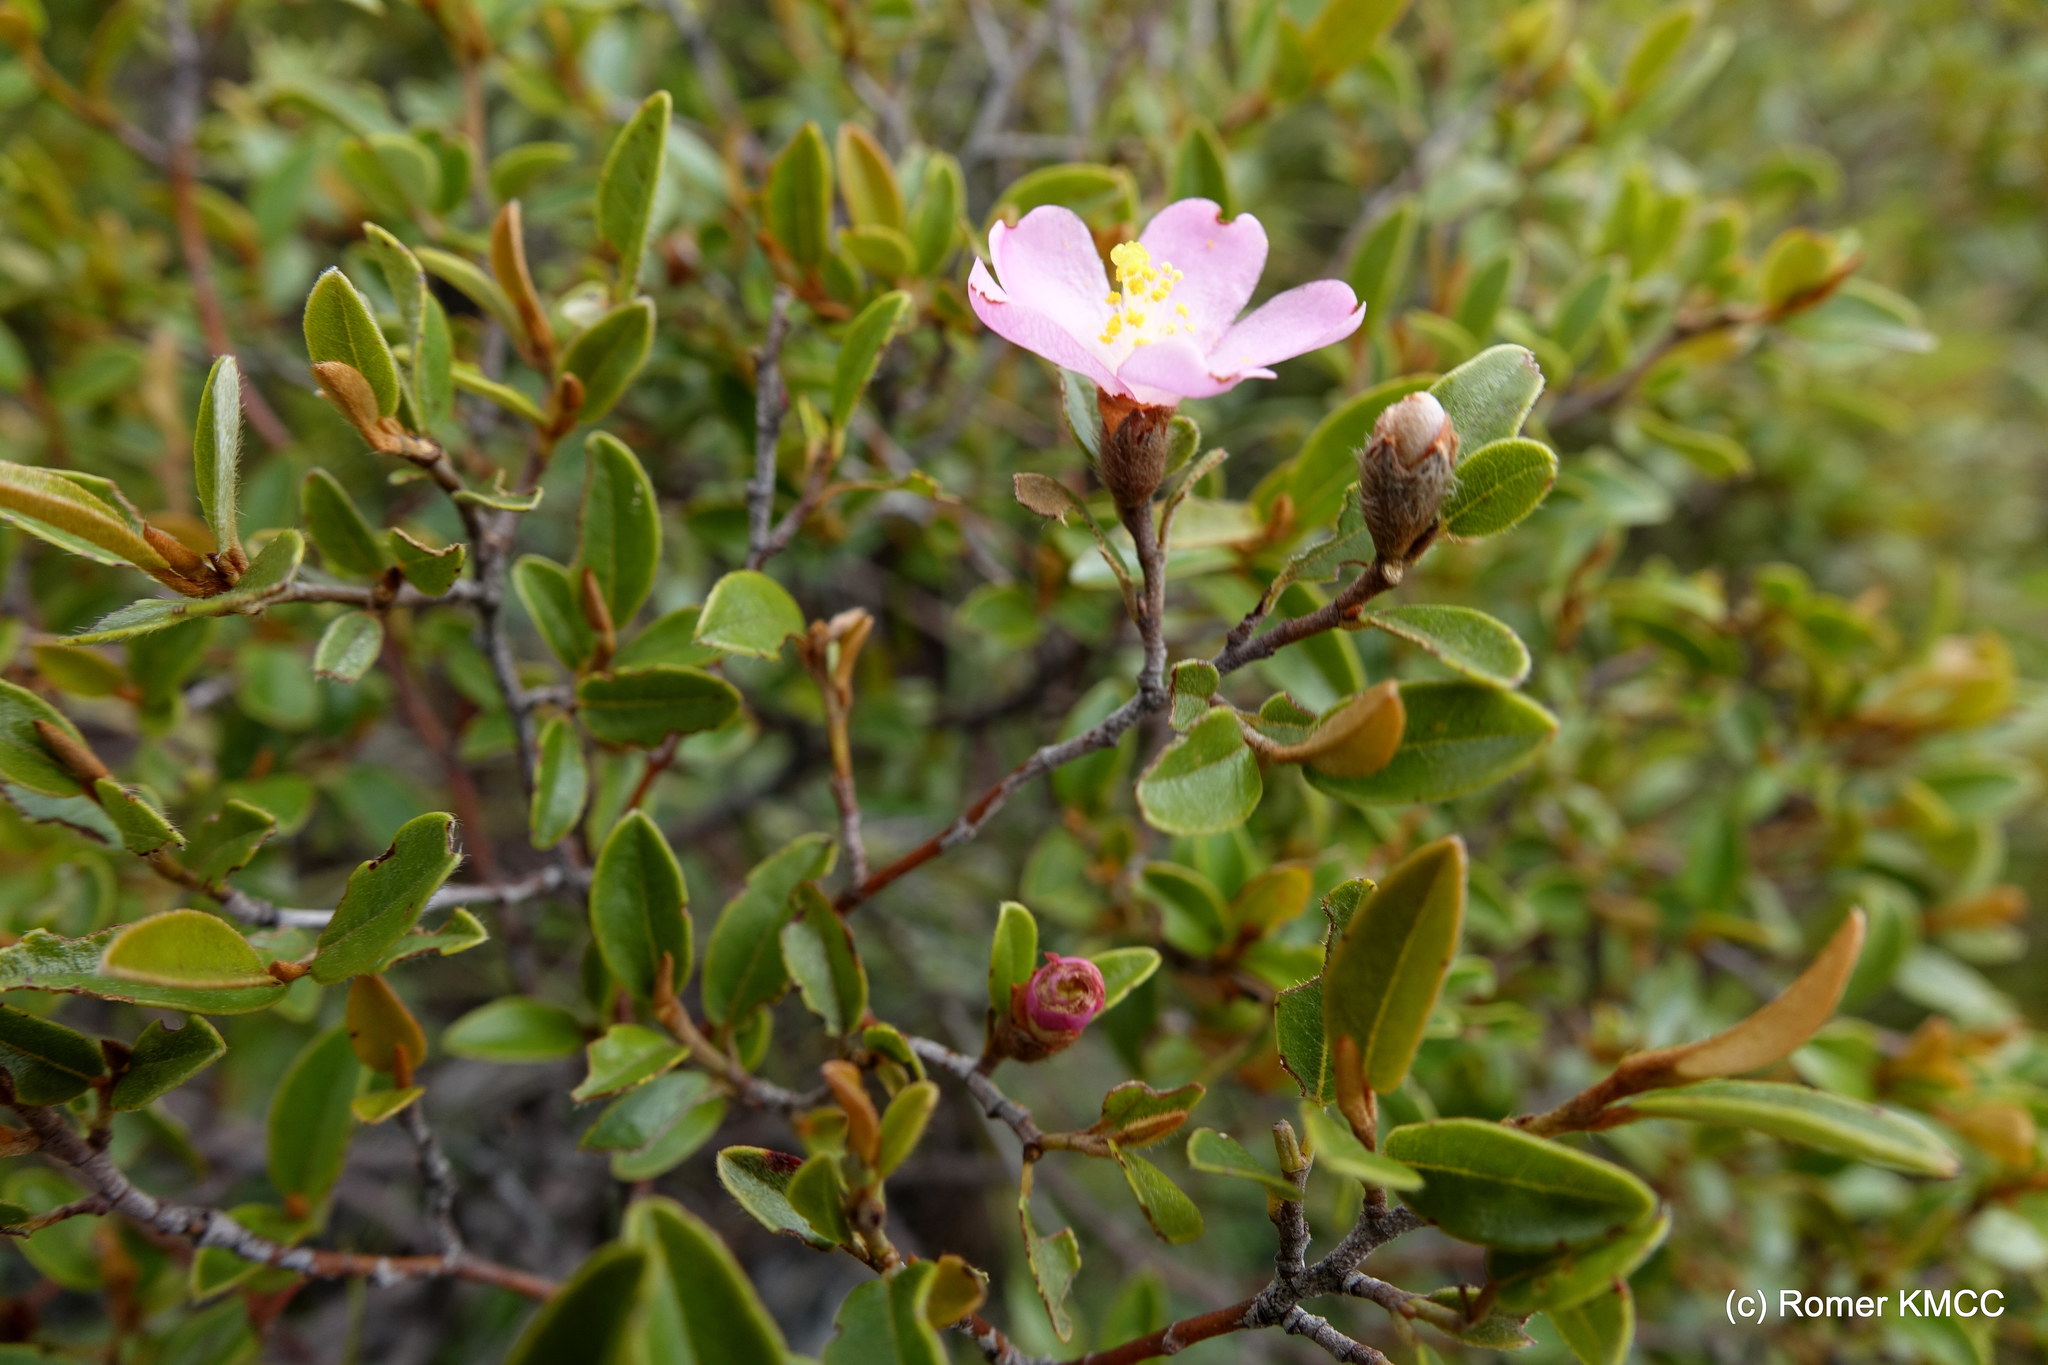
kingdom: Plantae
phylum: Tracheophyta
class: Magnoliopsida
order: Malvales
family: Sarcolaenaceae
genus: Xerochlamys
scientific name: Xerochlamys itremoensis
